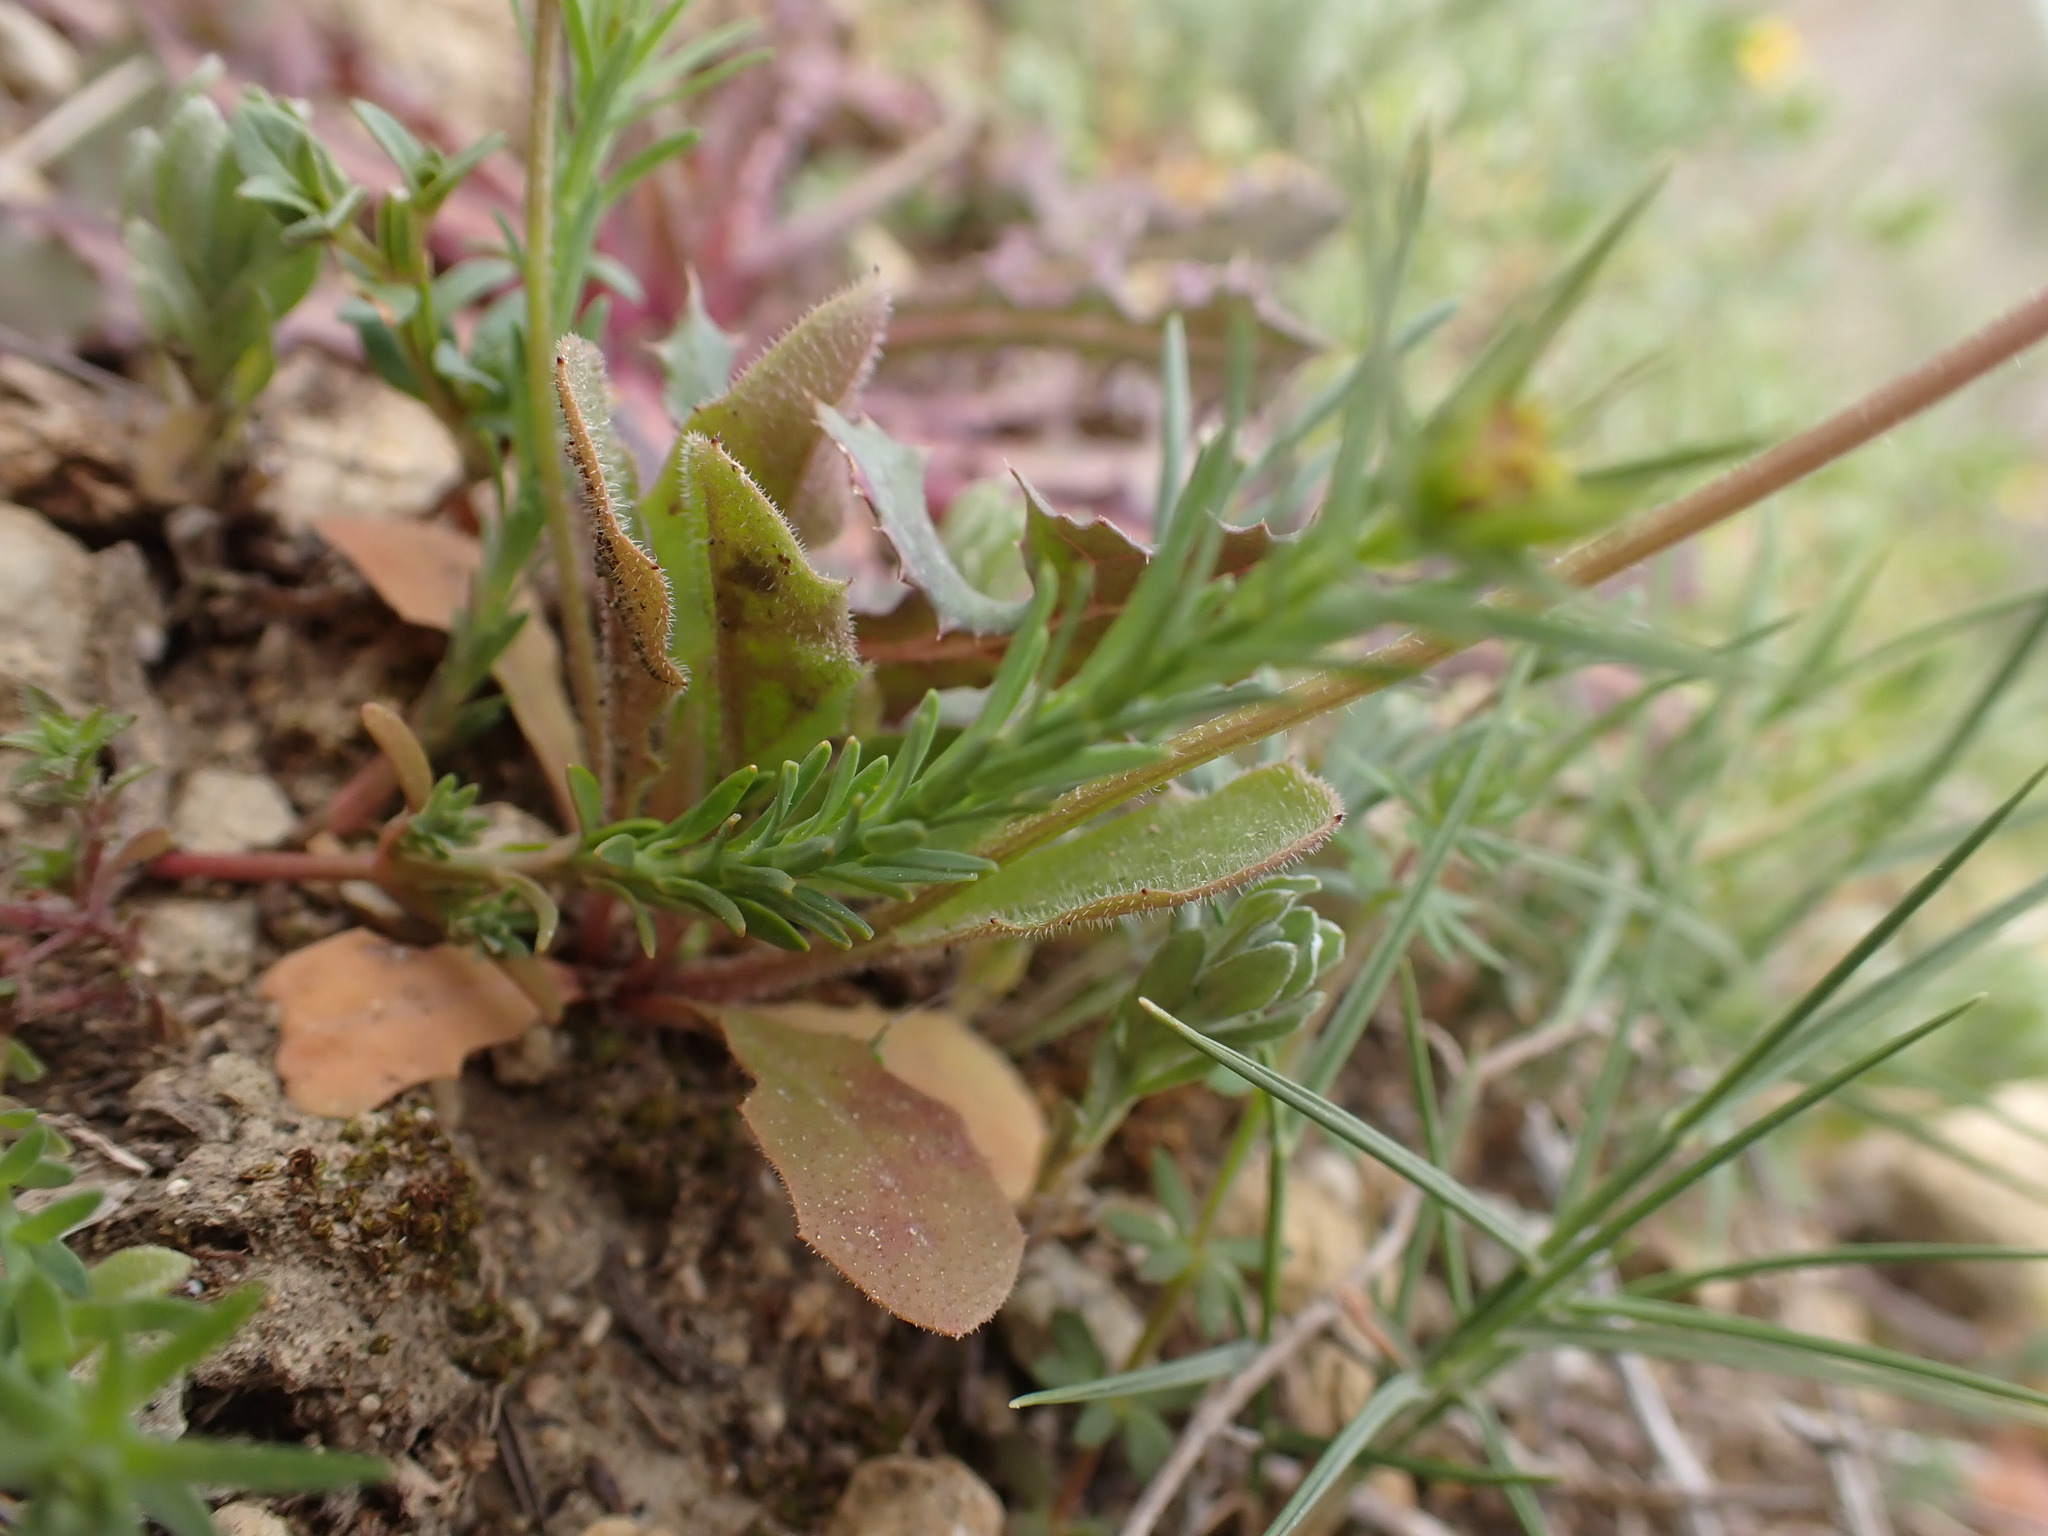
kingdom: Plantae
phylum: Tracheophyta
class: Magnoliopsida
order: Malpighiales
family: Euphorbiaceae
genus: Euphorbia
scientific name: Euphorbia exigua
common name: Dwarf spurge
